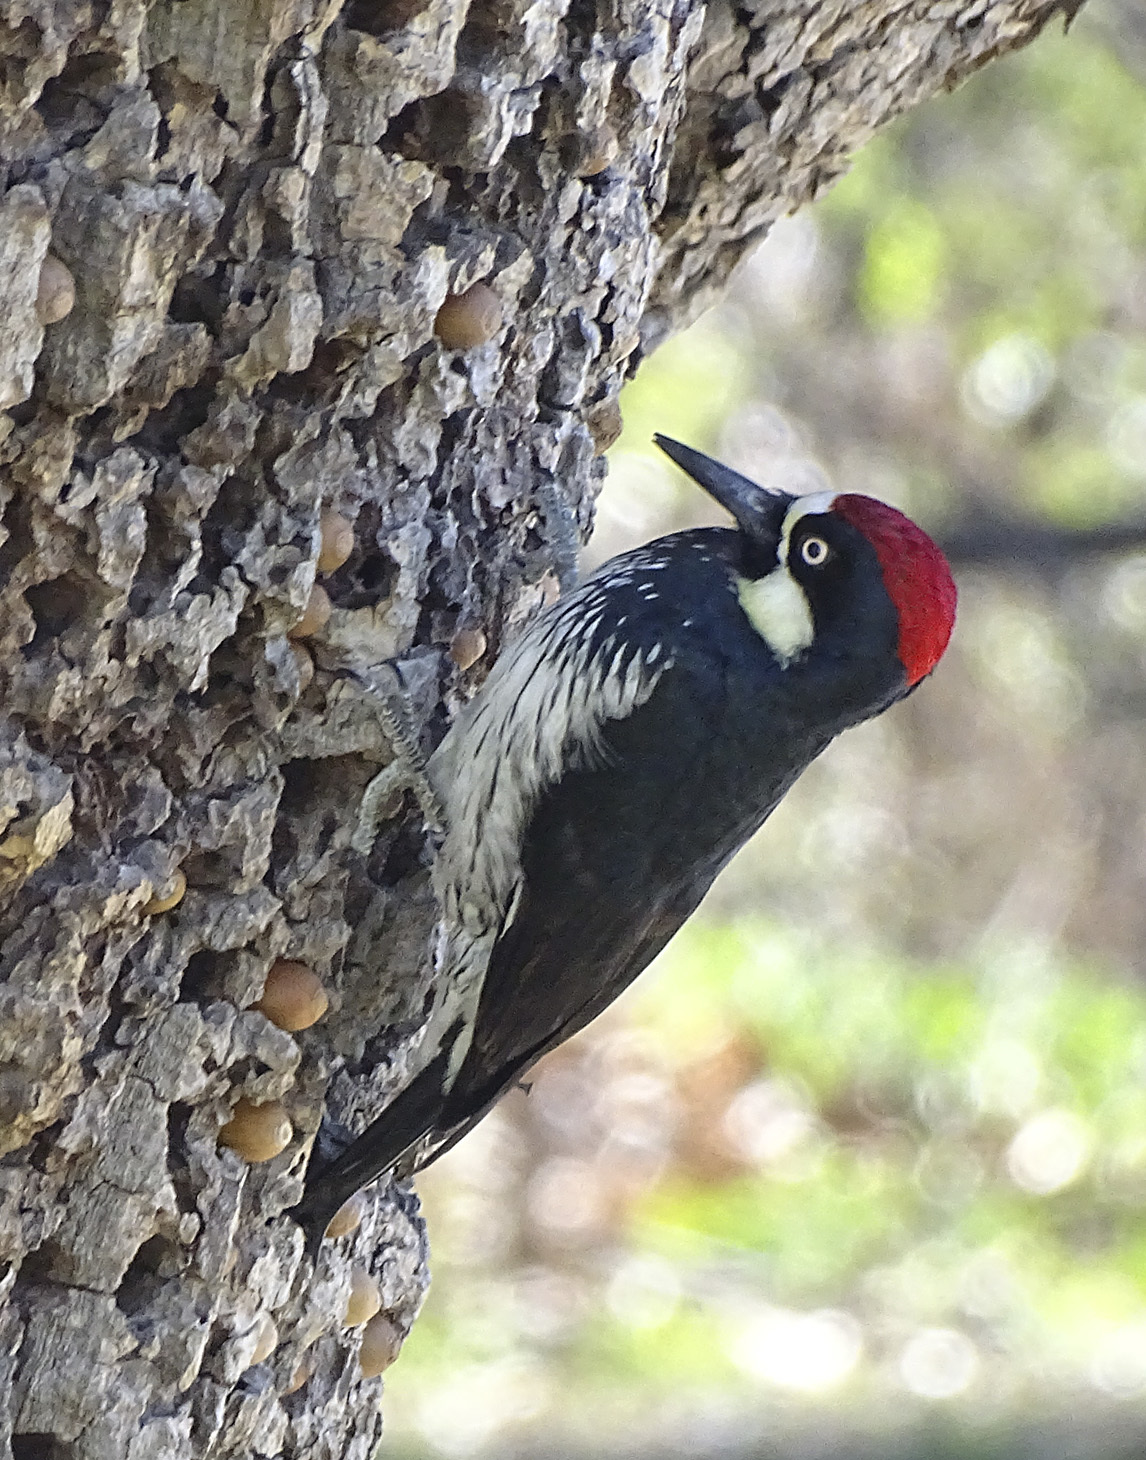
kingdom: Animalia
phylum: Chordata
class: Aves
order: Piciformes
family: Picidae
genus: Melanerpes
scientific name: Melanerpes formicivorus
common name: Acorn woodpecker
